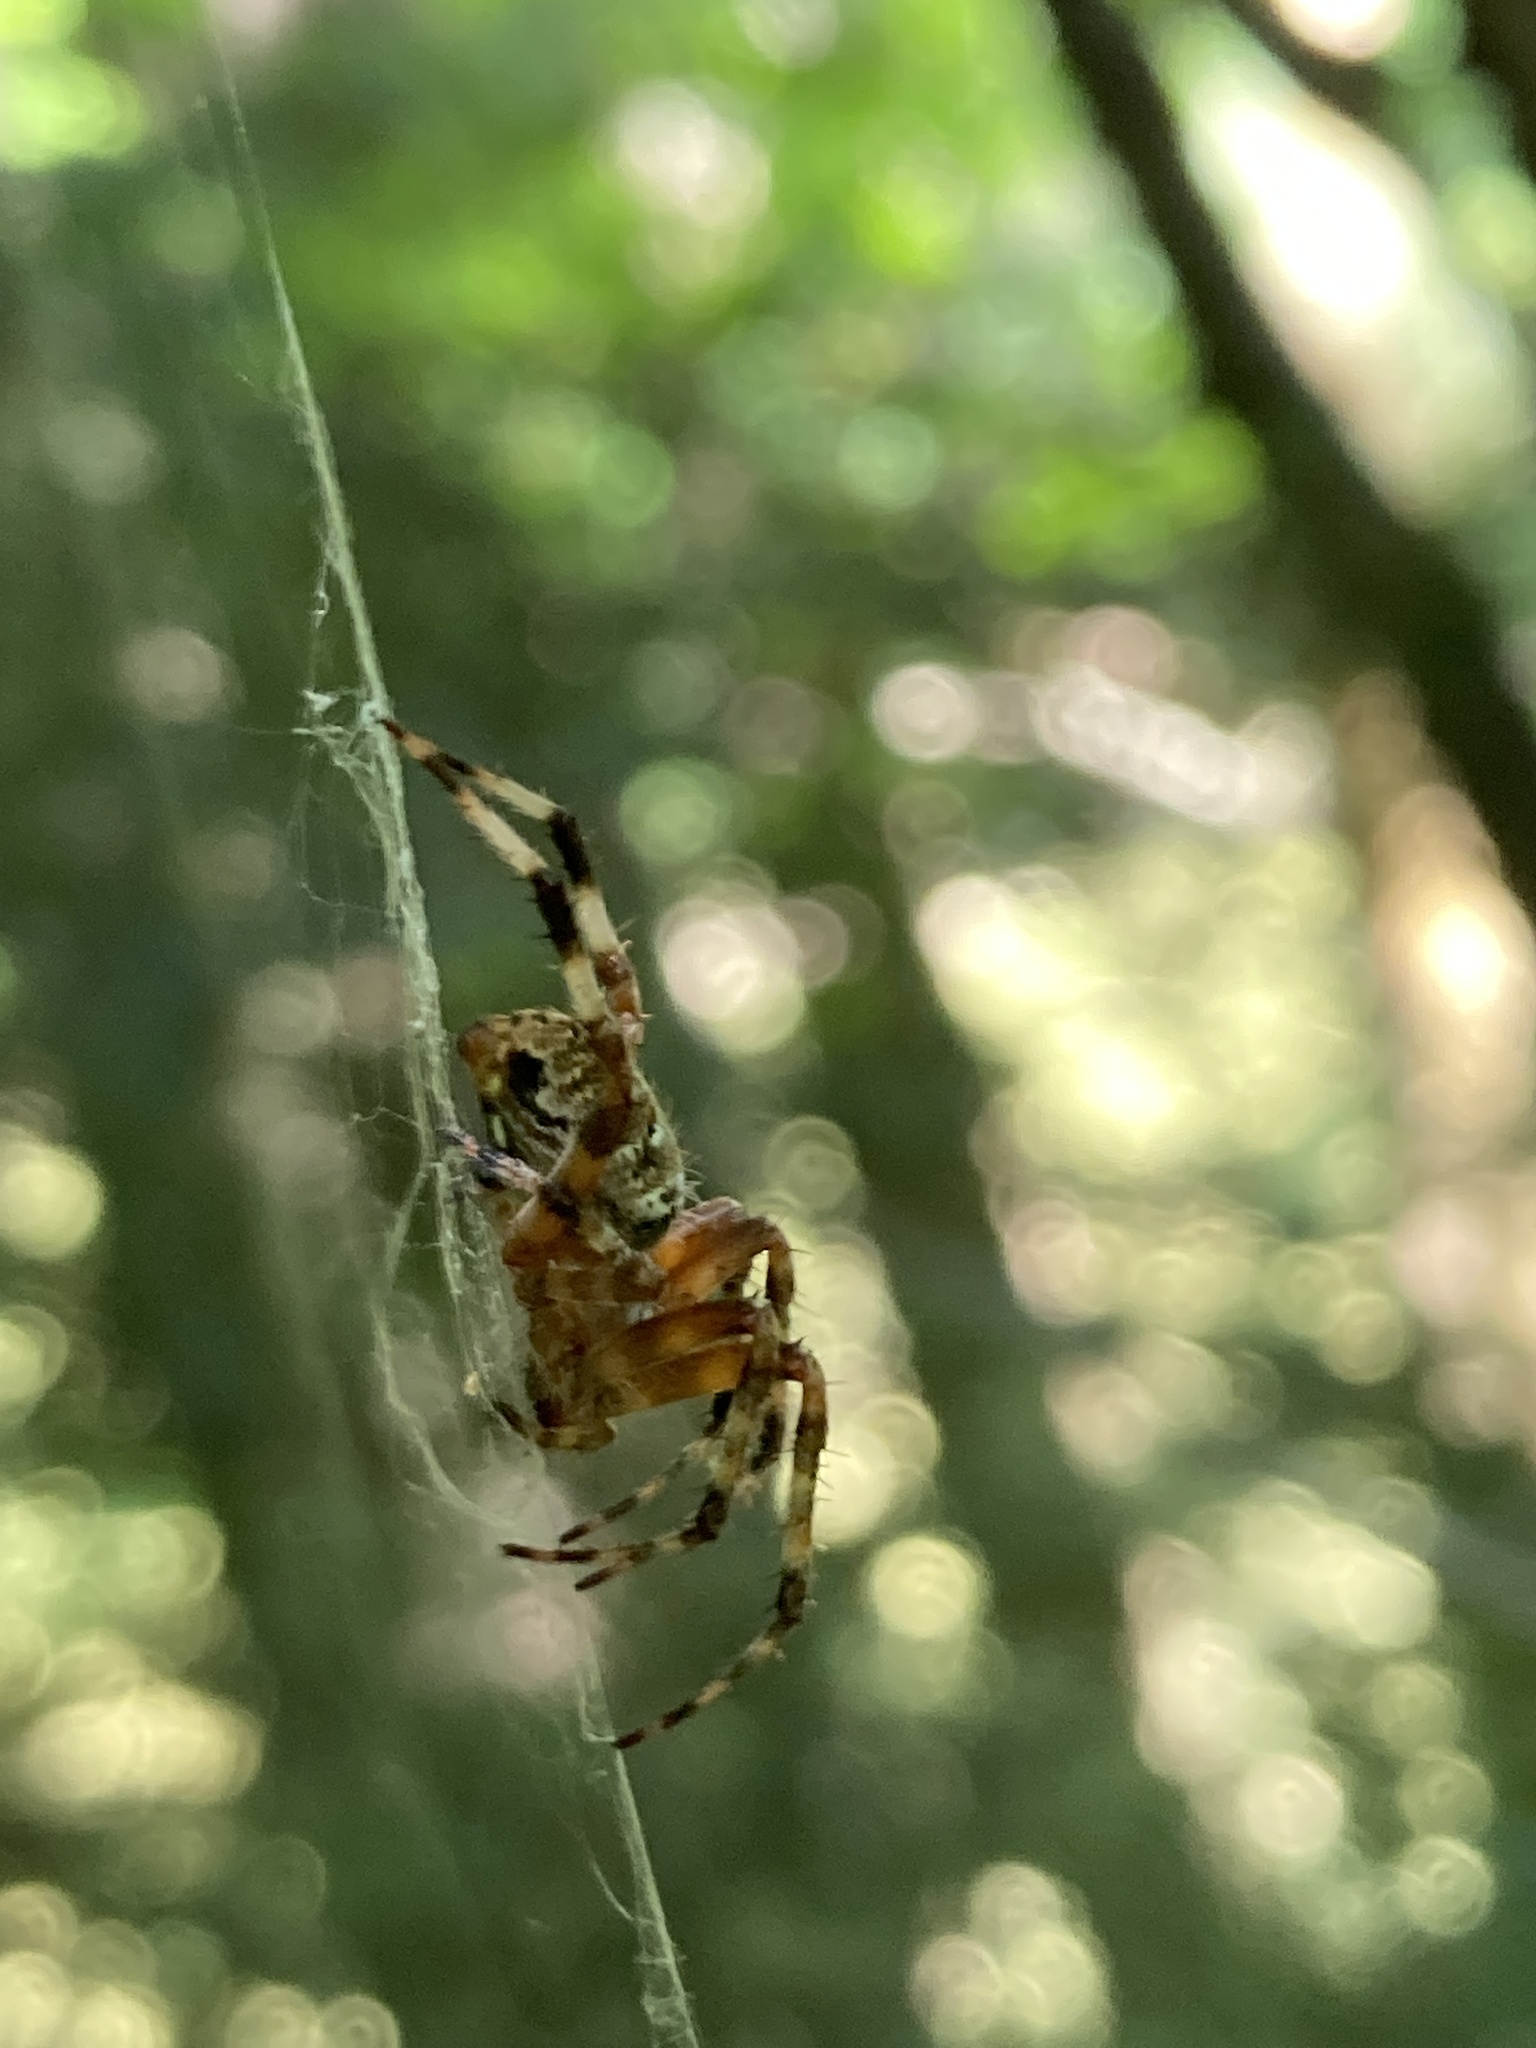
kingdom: Animalia
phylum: Arthropoda
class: Arachnida
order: Araneae
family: Araneidae
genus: Neoscona
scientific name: Neoscona domiciliorum
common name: Red-femured spotted orbweaver
